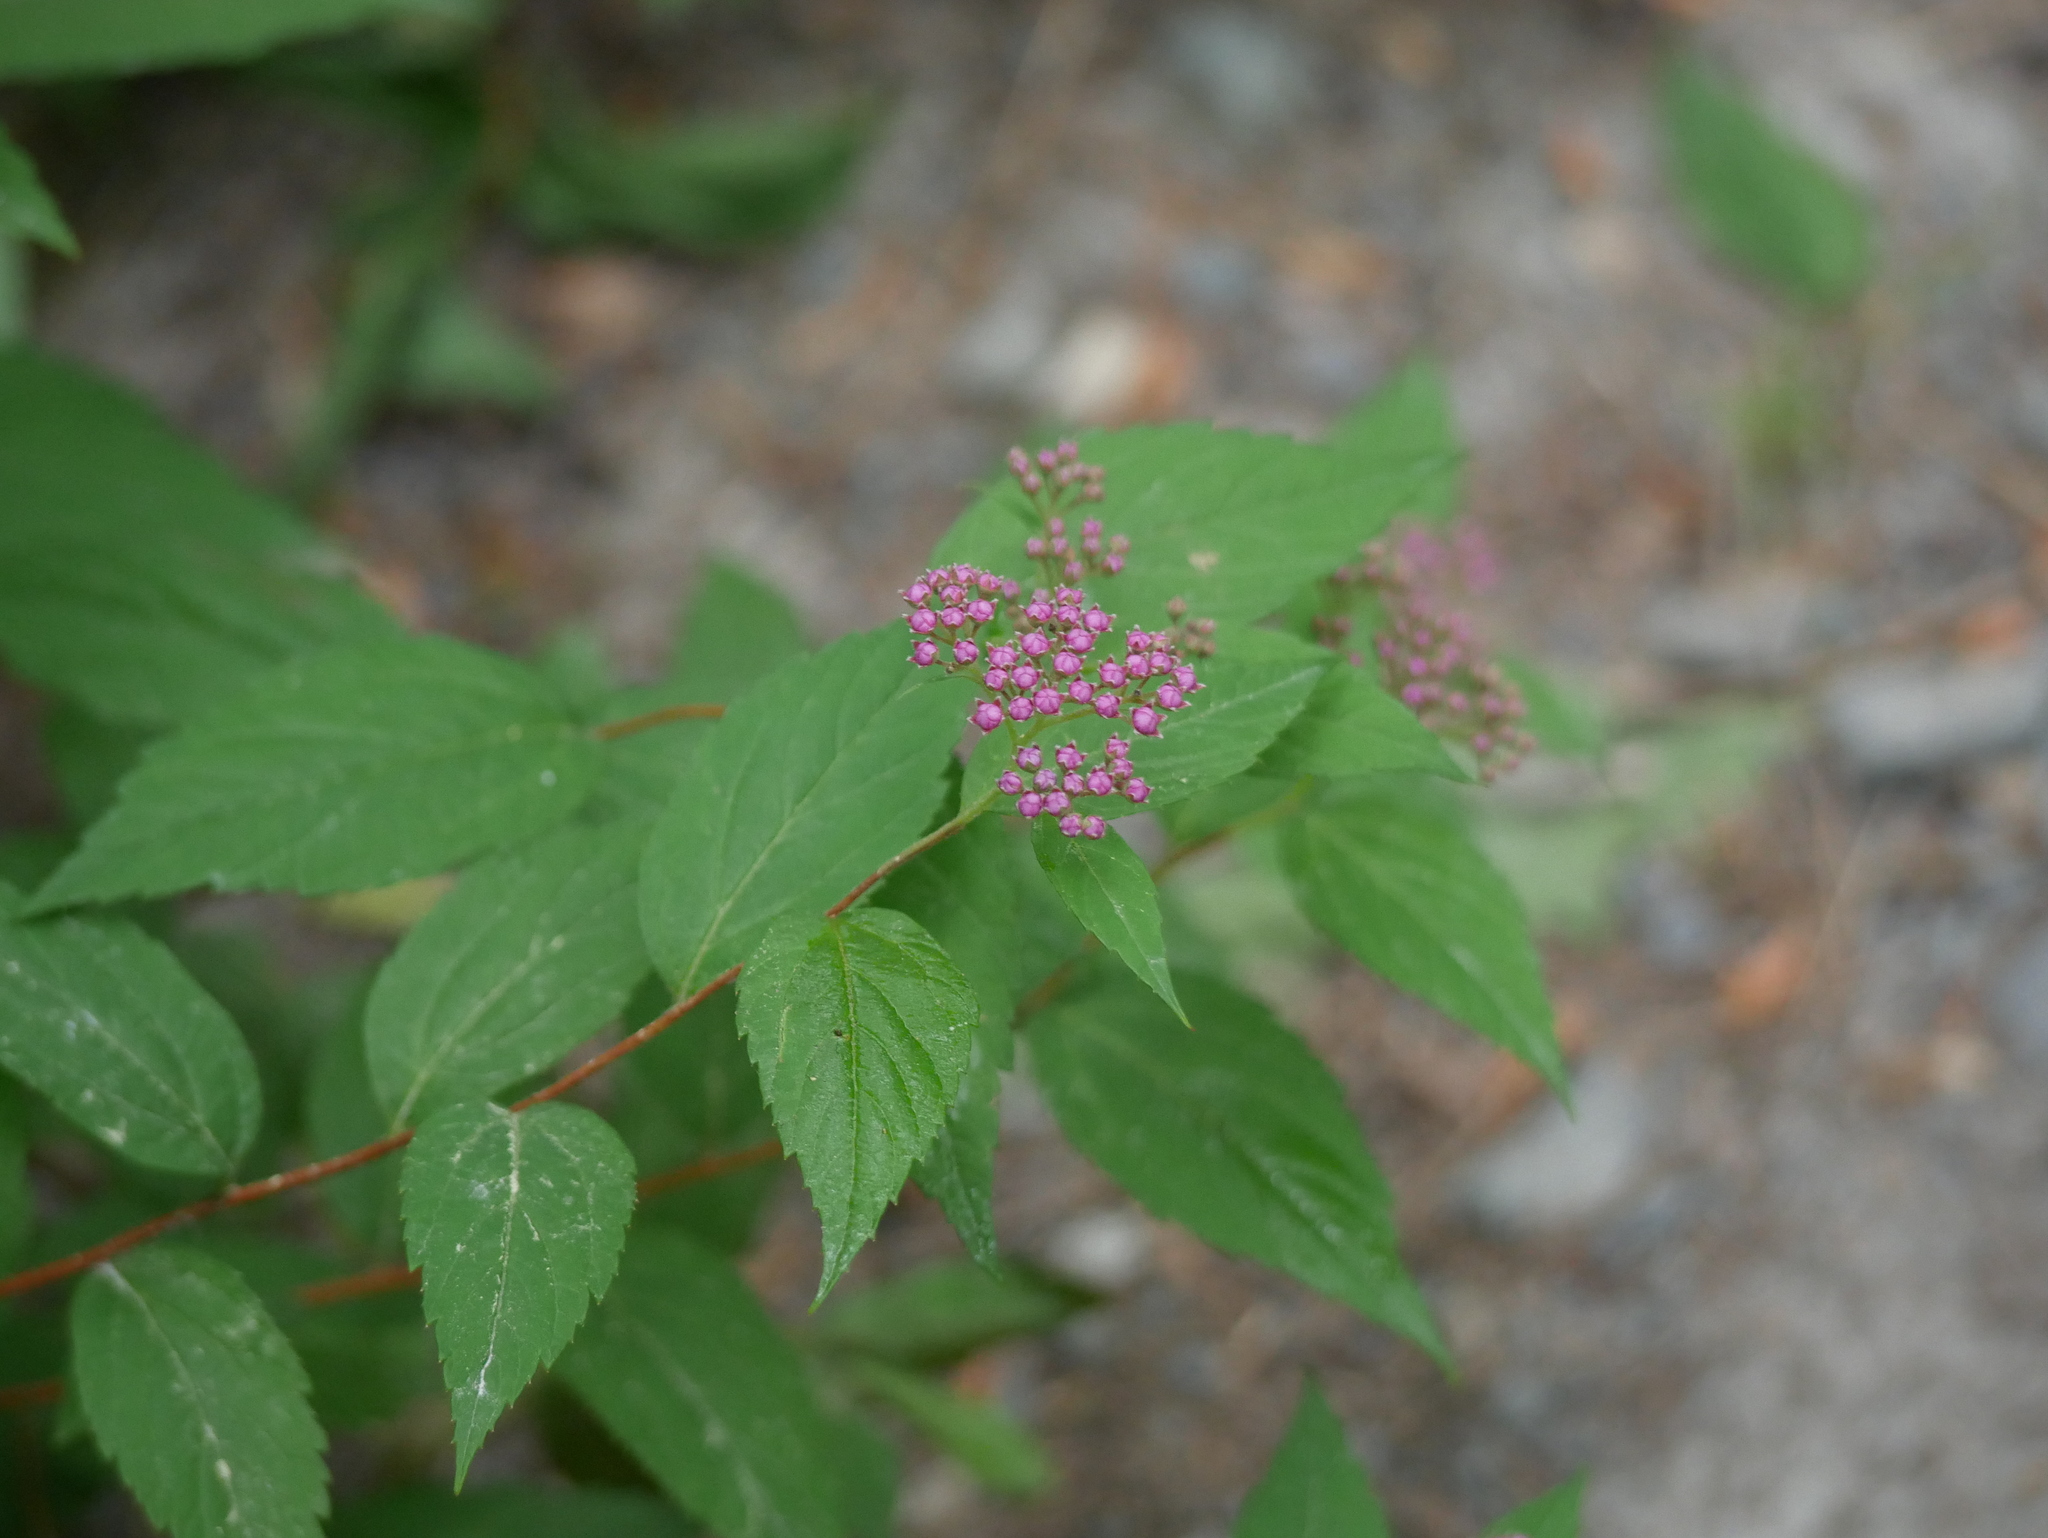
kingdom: Plantae
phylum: Tracheophyta
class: Magnoliopsida
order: Rosales
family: Rosaceae
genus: Spiraea
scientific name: Spiraea japonica
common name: Japanese spiraea
